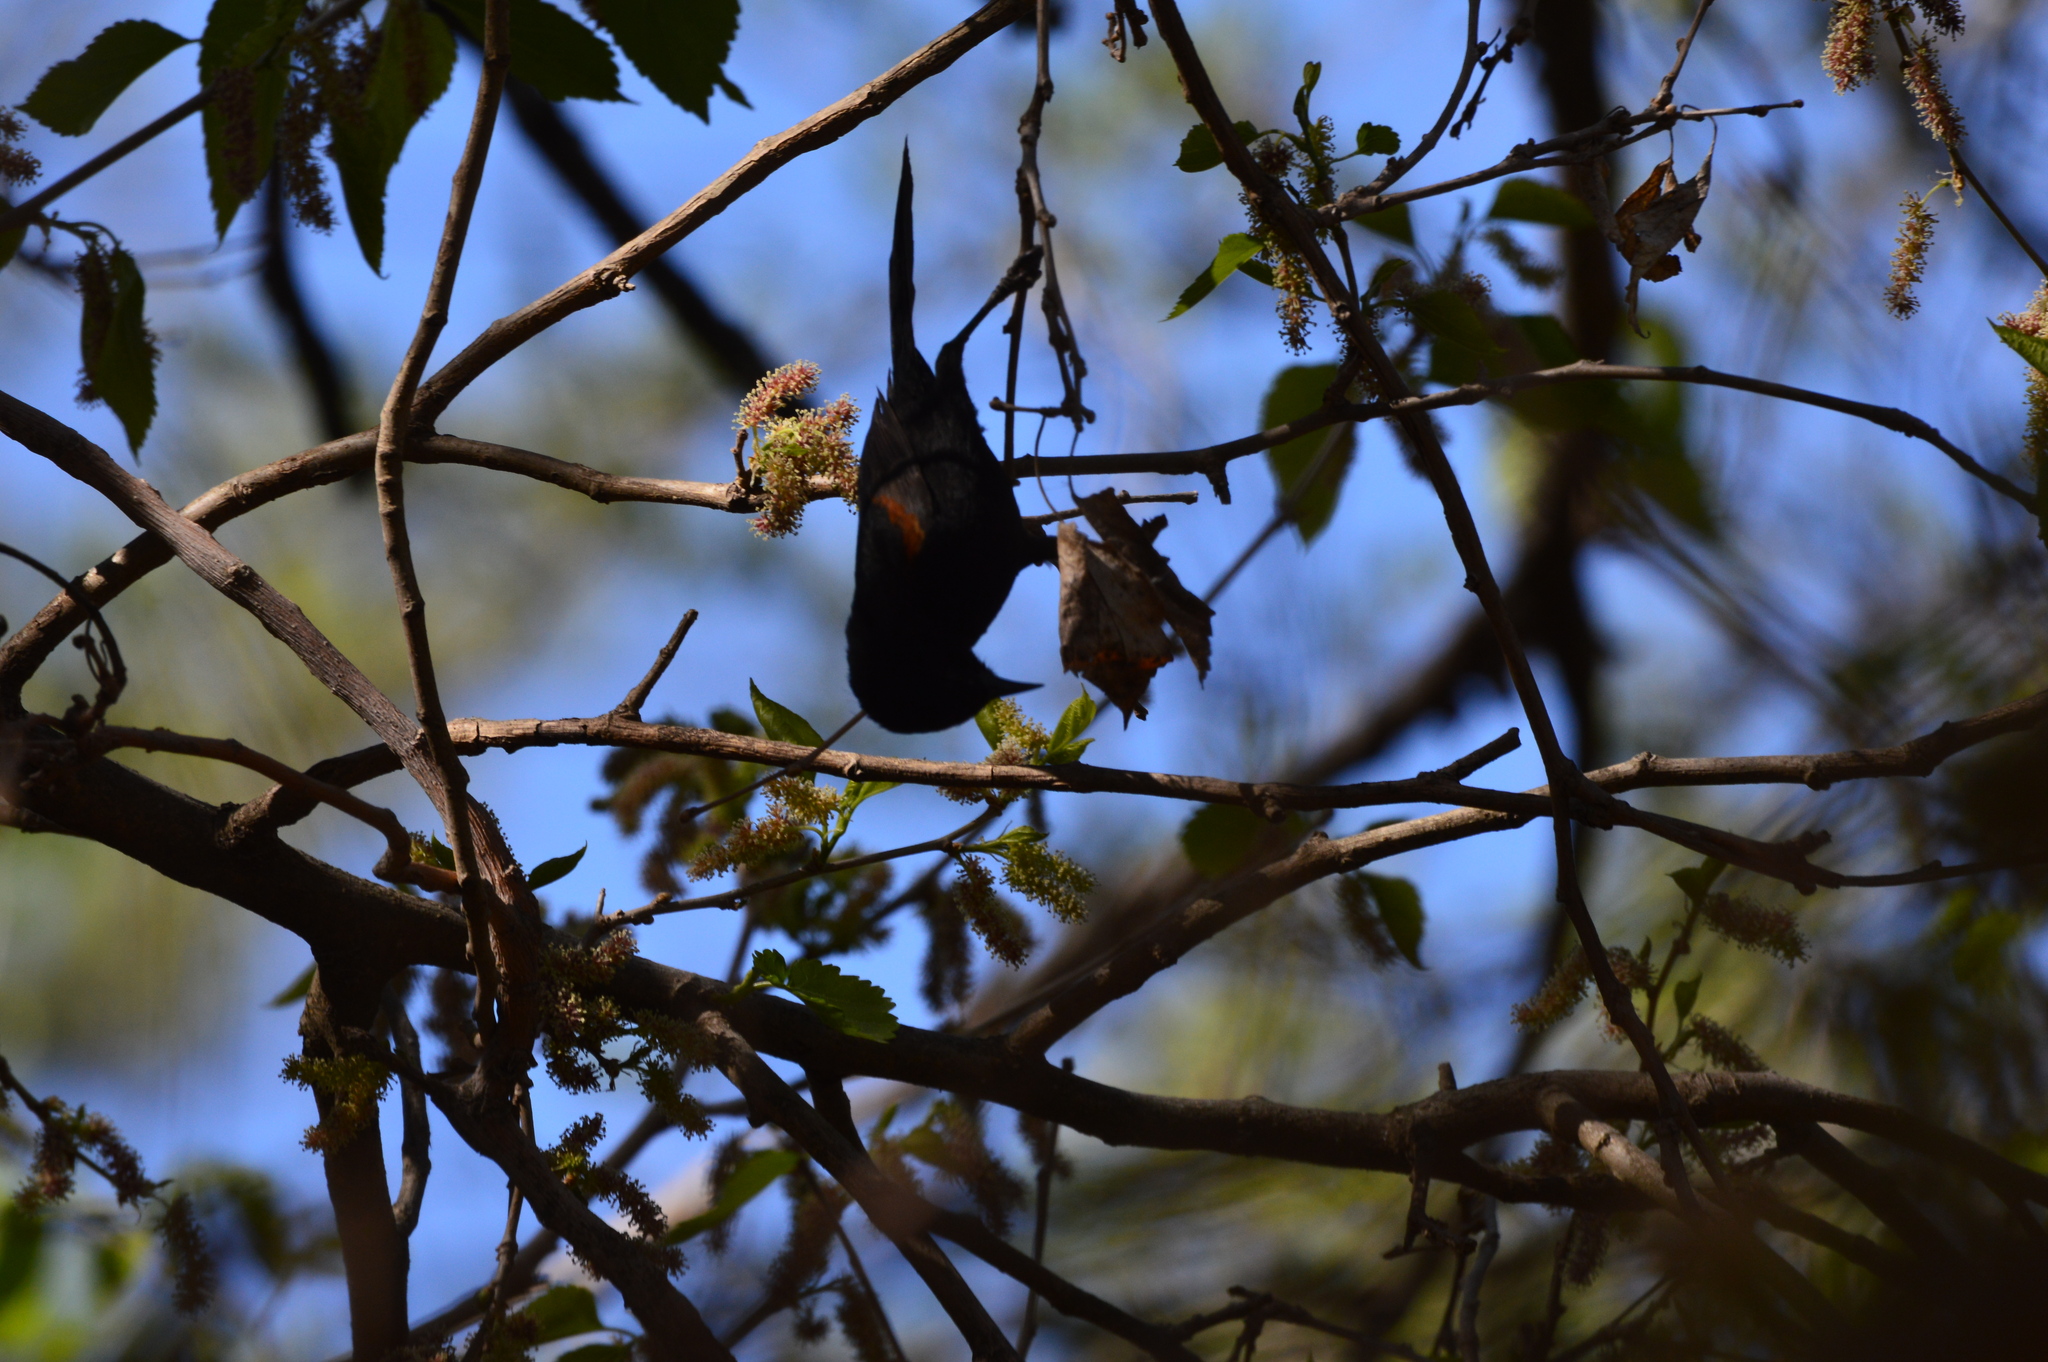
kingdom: Animalia
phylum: Chordata
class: Aves
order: Passeriformes
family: Icteridae
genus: Icterus
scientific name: Icterus cayanensis
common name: Epaulet oriole
